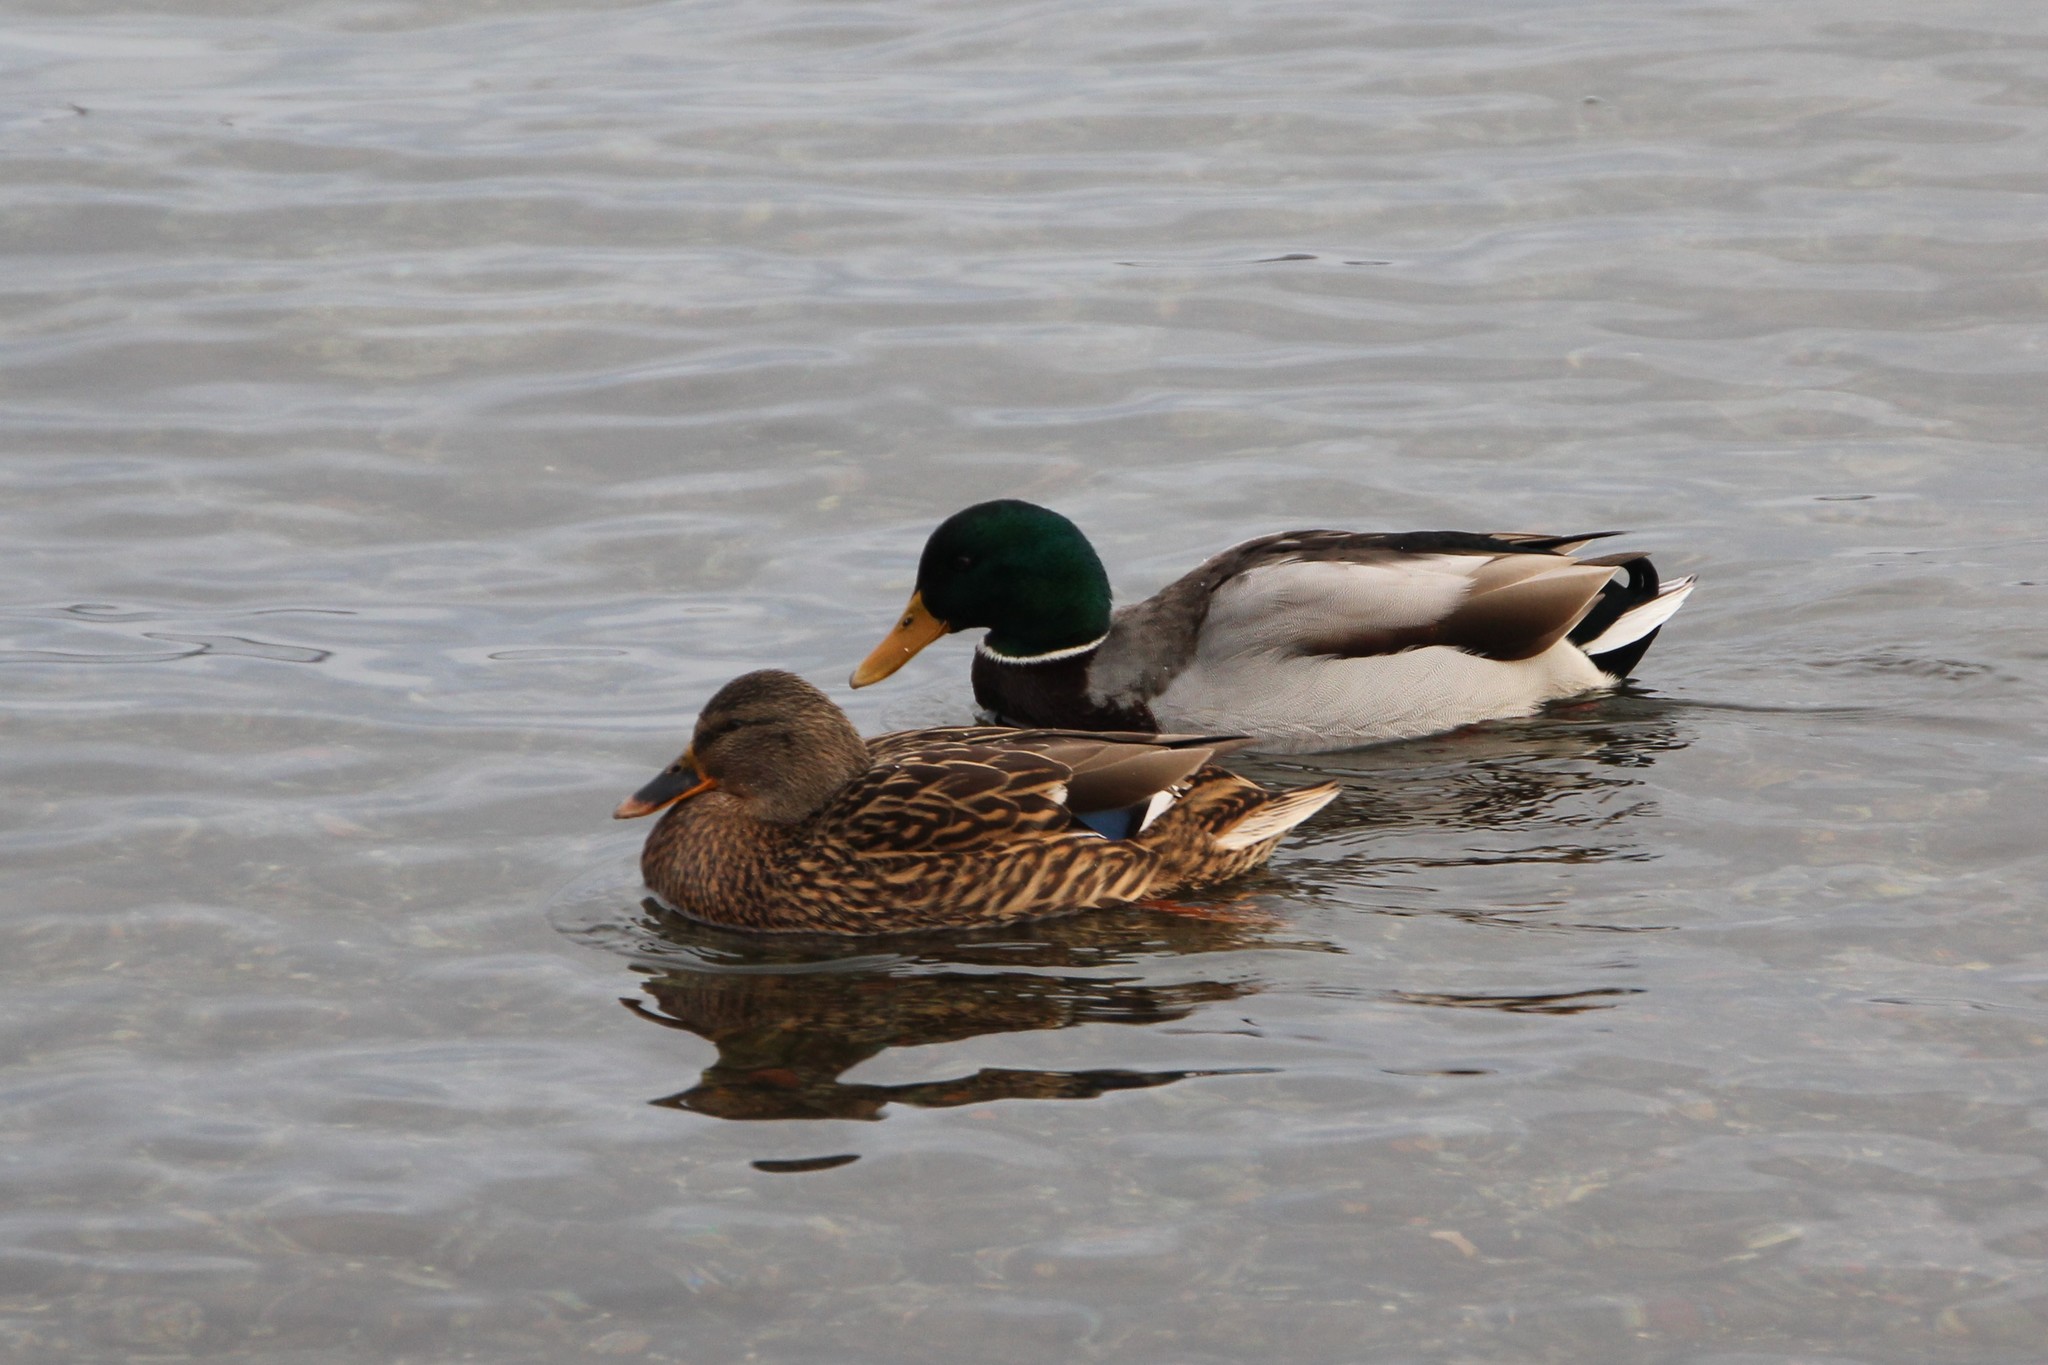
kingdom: Animalia
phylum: Chordata
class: Aves
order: Anseriformes
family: Anatidae
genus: Anas
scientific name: Anas platyrhynchos
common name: Mallard
